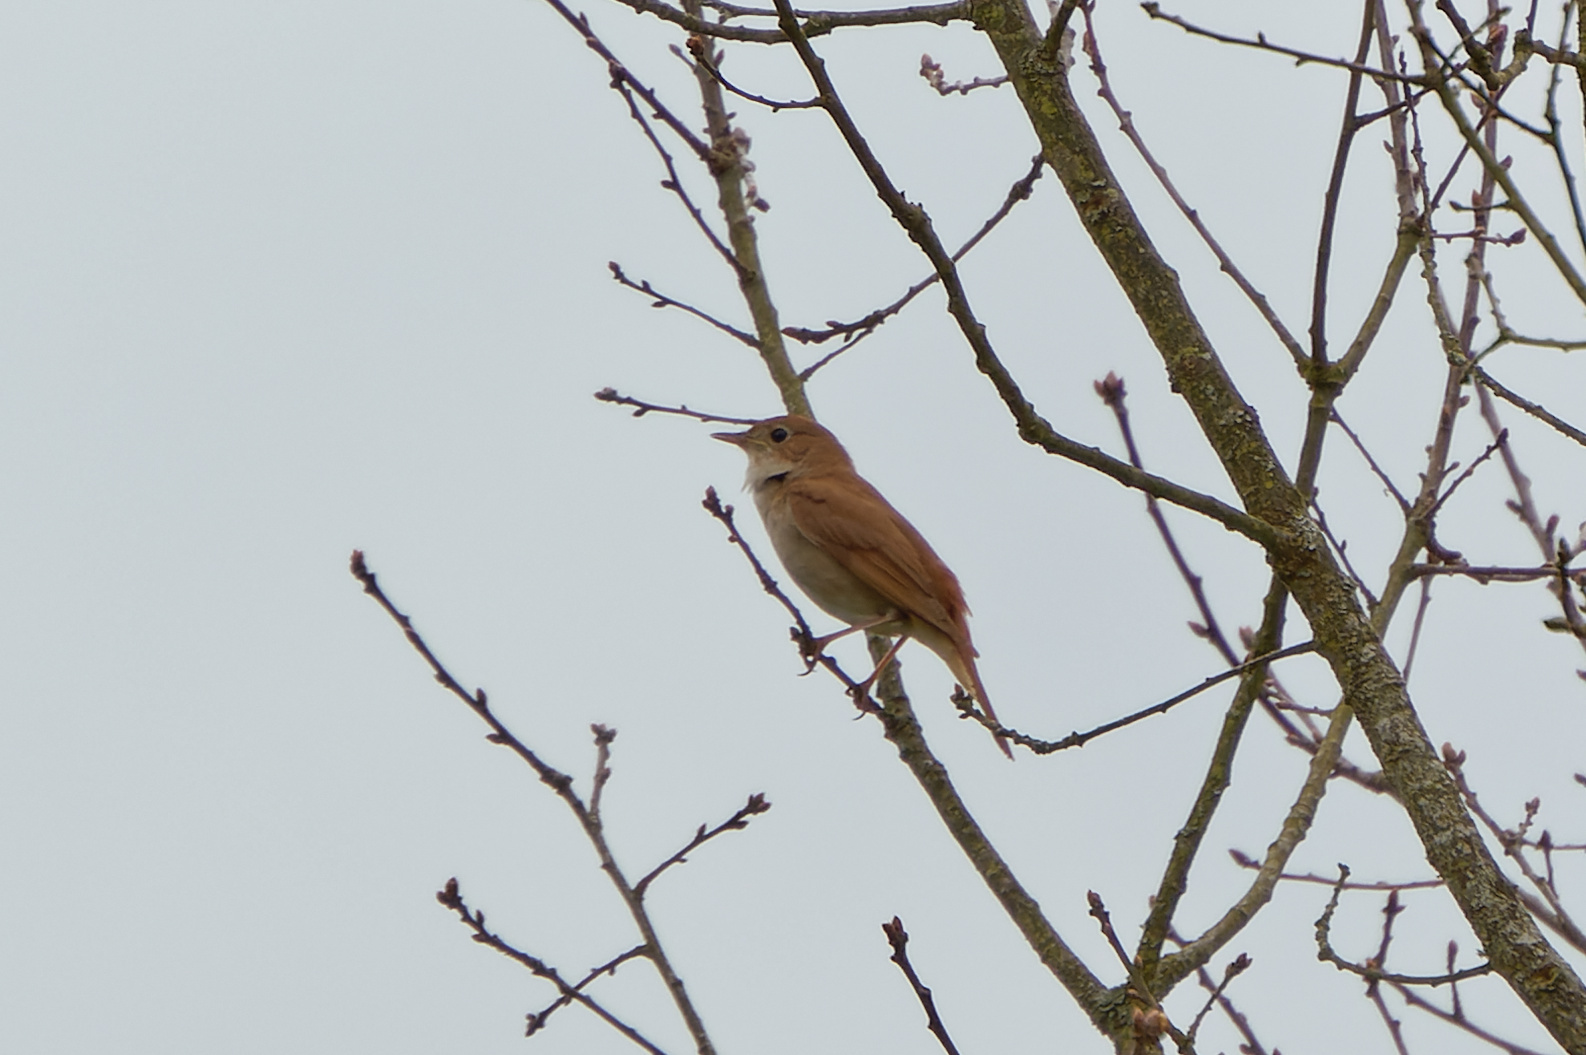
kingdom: Animalia
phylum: Chordata
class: Aves
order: Passeriformes
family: Muscicapidae
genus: Luscinia
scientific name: Luscinia megarhynchos
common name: Common nightingale
